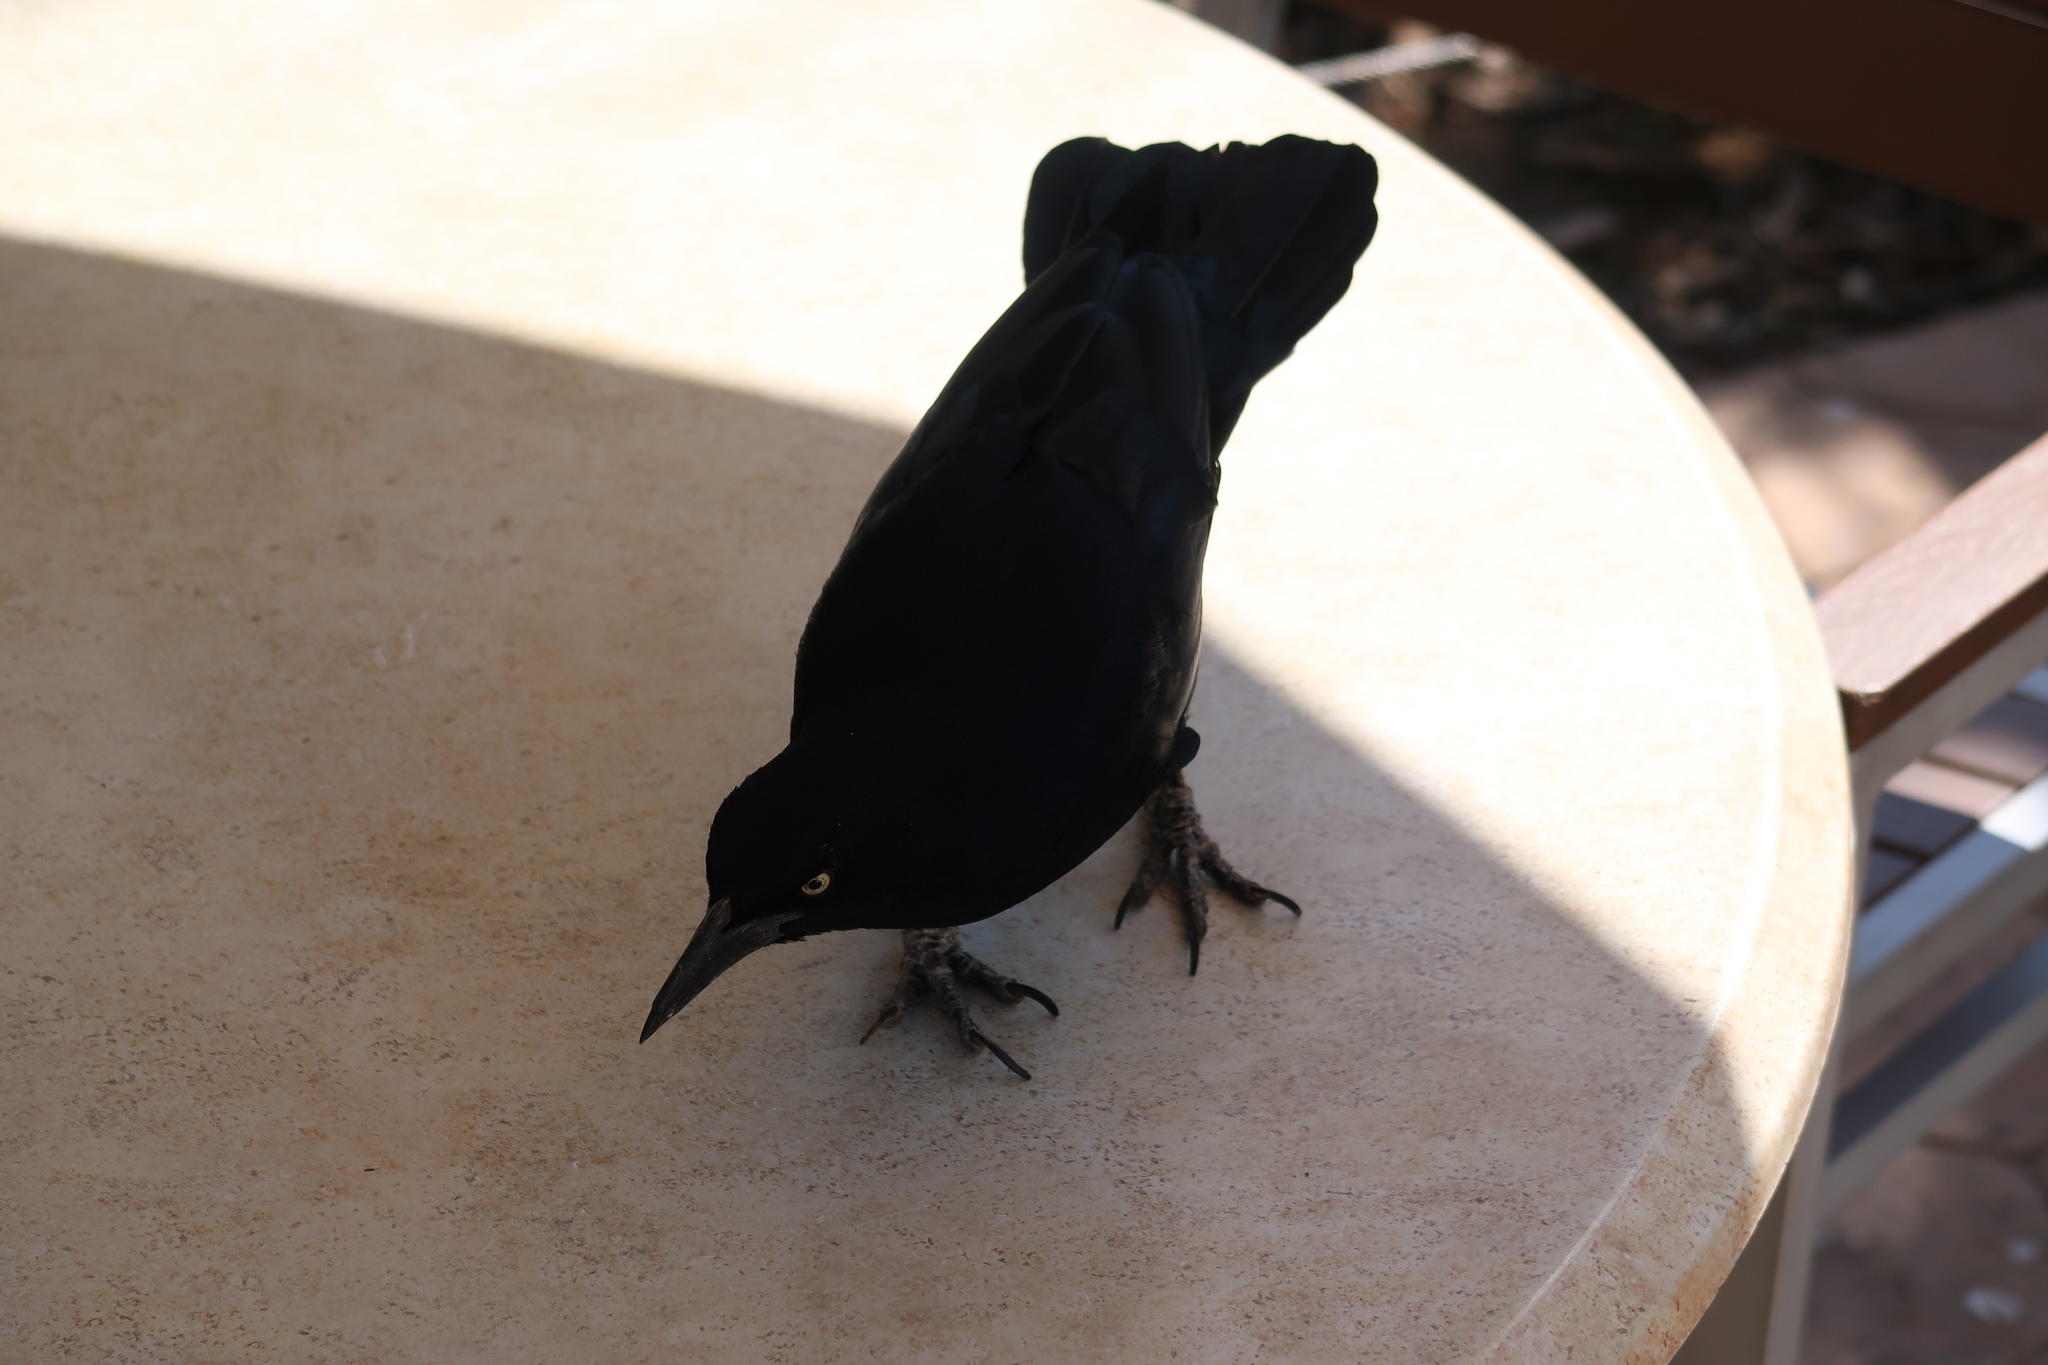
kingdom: Animalia
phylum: Chordata
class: Aves
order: Passeriformes
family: Icteridae
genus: Quiscalus
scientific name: Quiscalus mexicanus
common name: Great-tailed grackle
